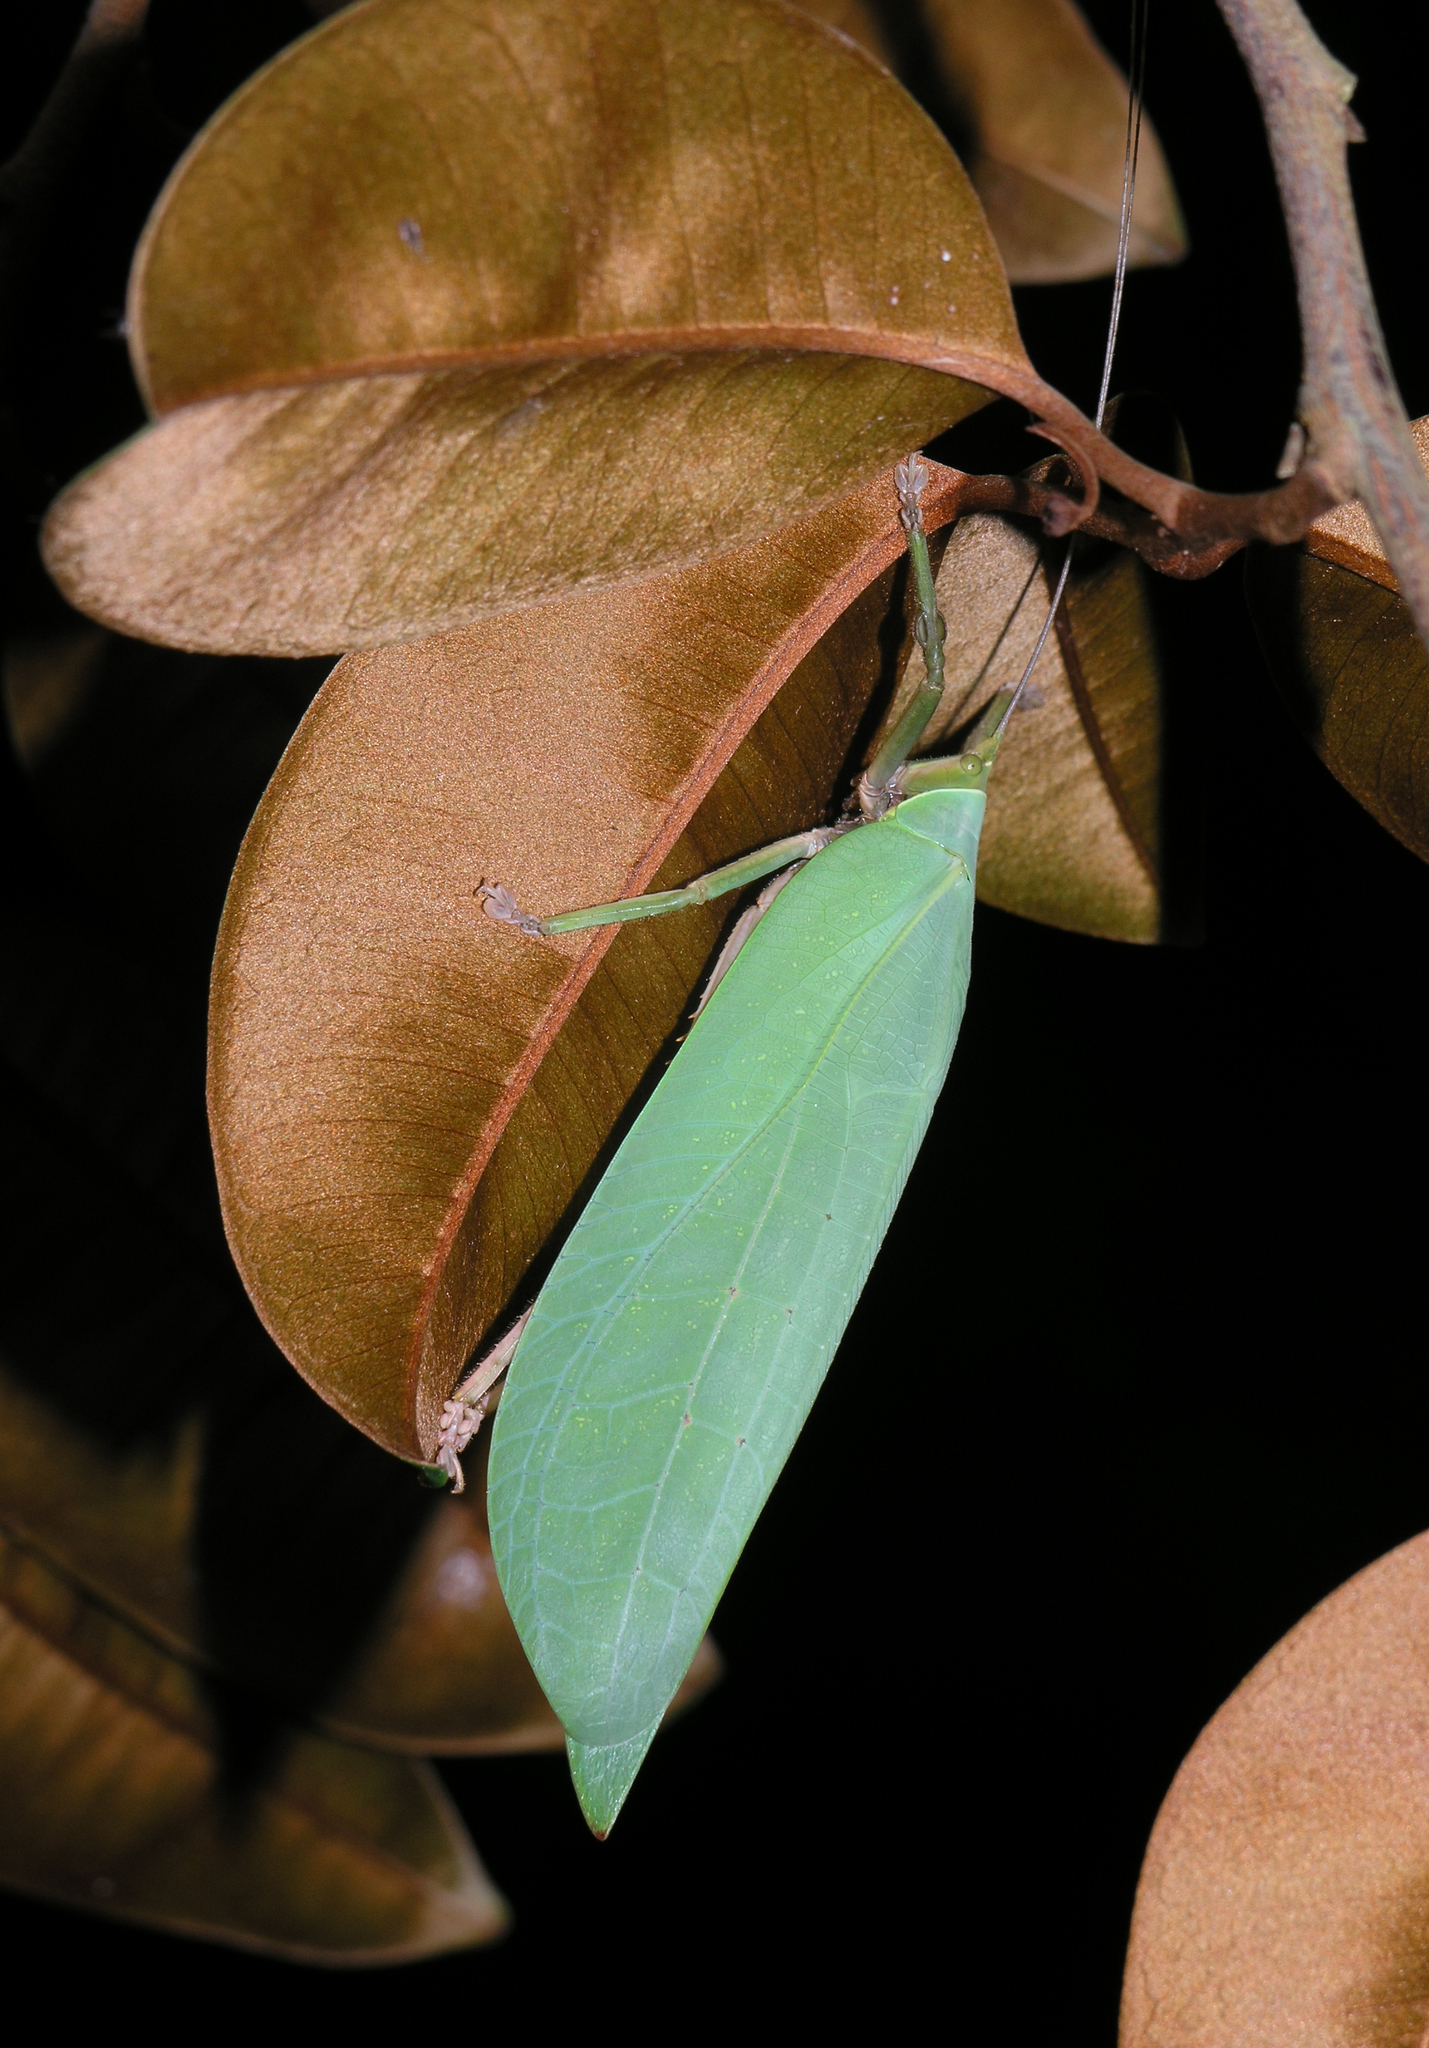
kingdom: Animalia
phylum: Arthropoda
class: Insecta
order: Orthoptera
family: Tettigoniidae
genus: Onomarchus
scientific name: Onomarchus uninotatus
